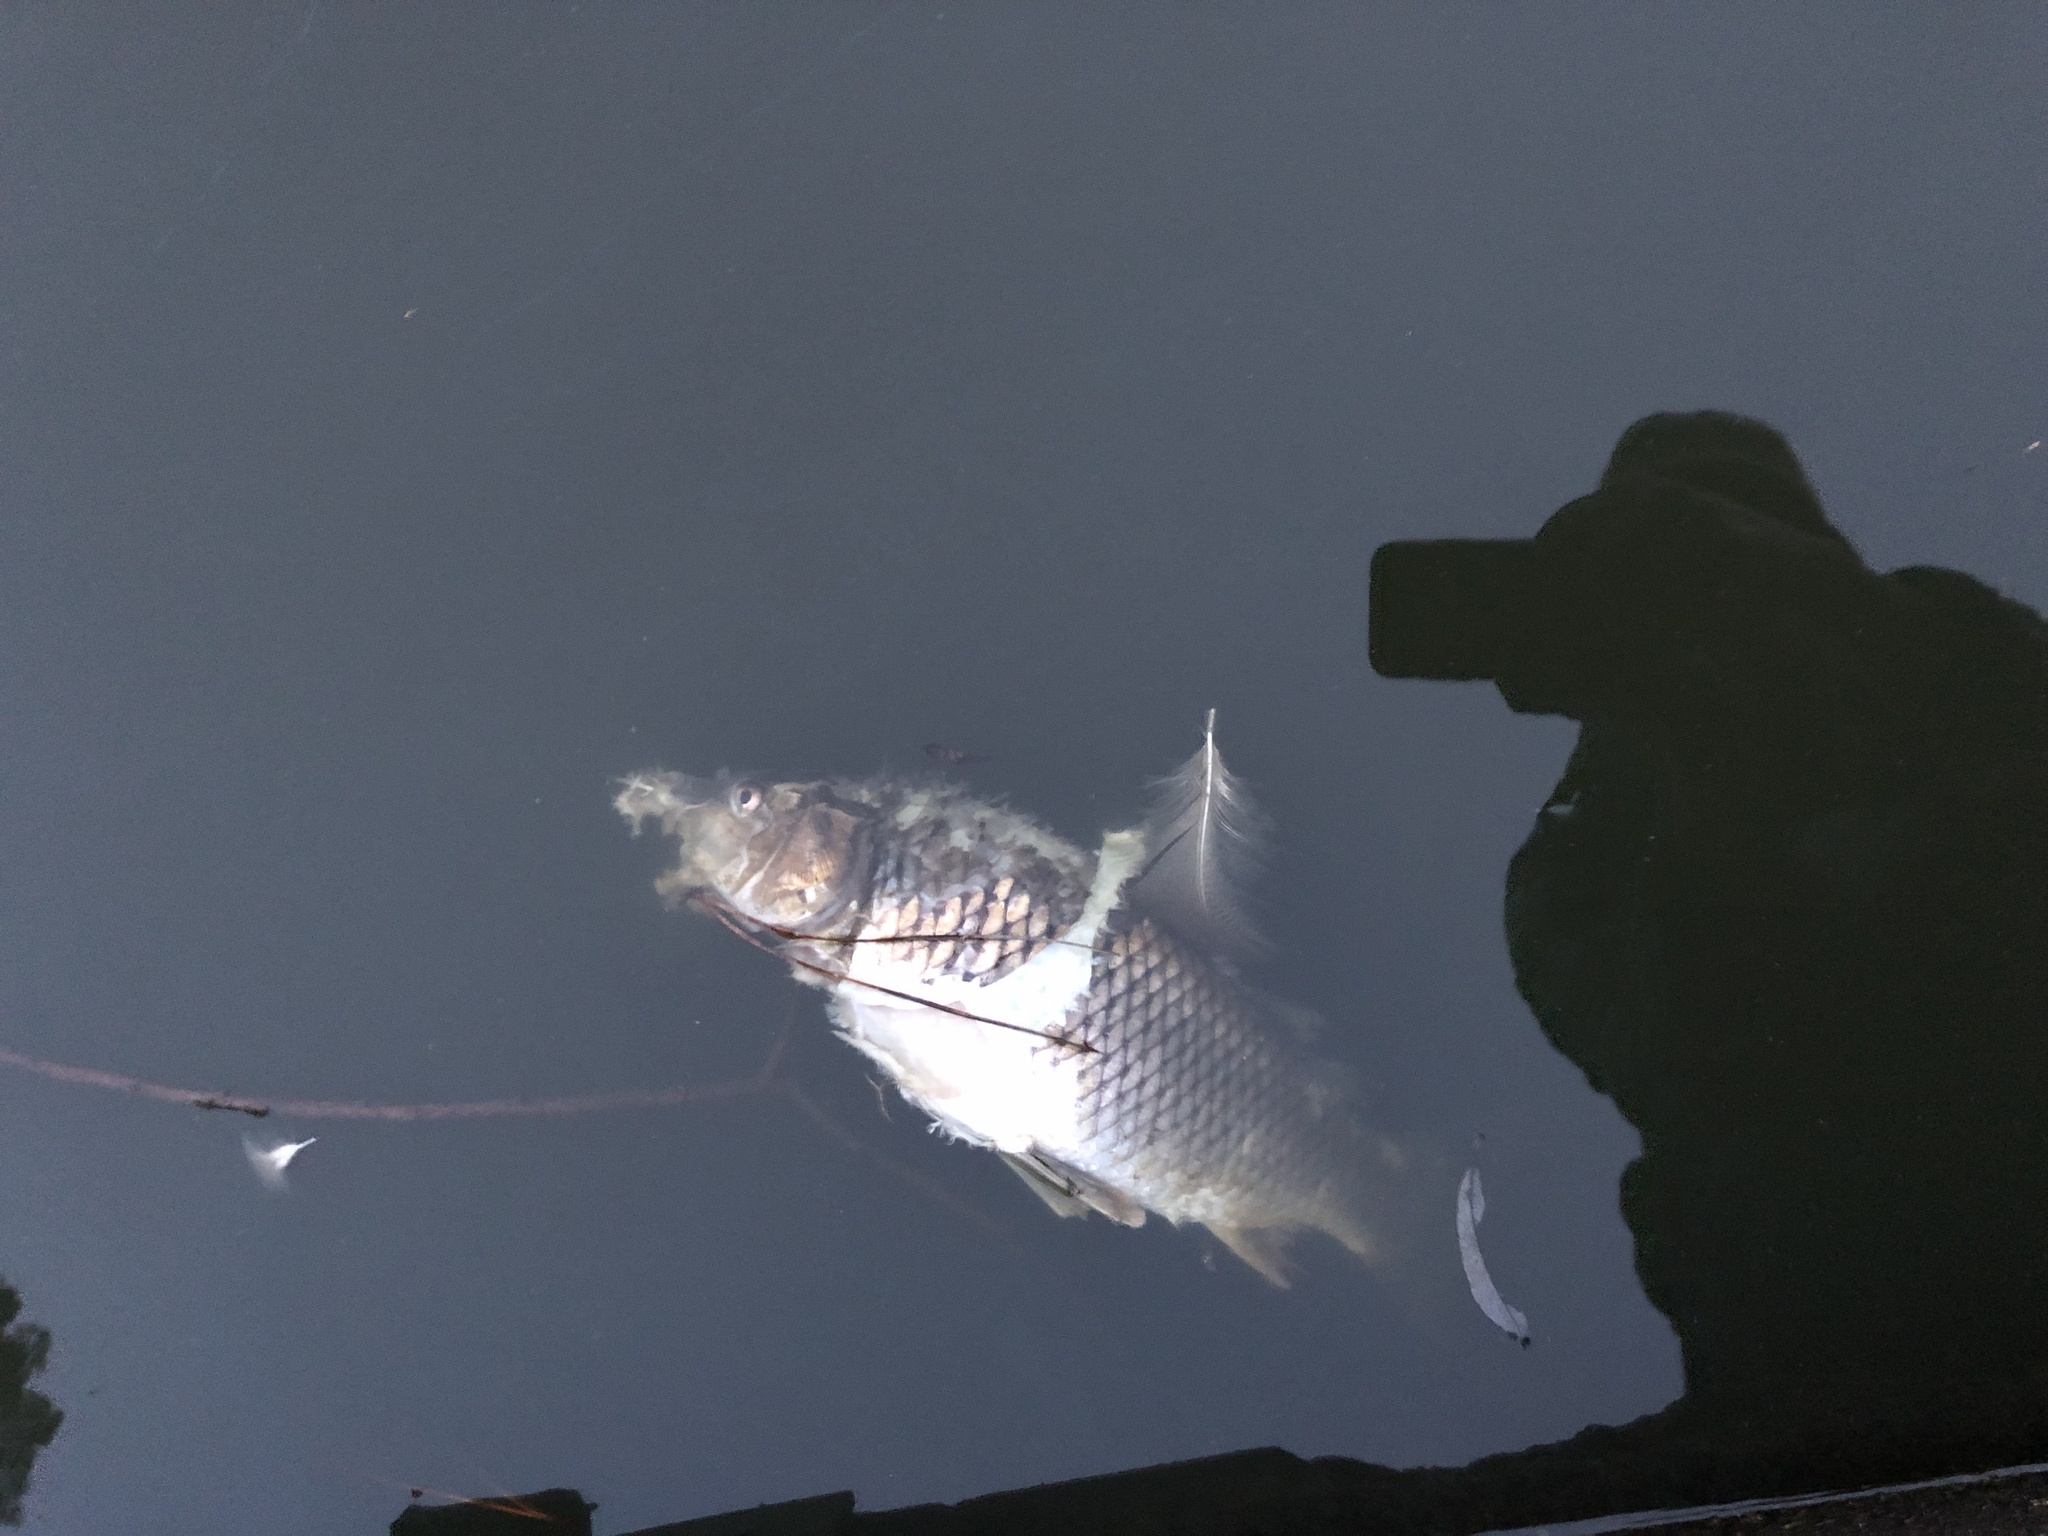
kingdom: Animalia
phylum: Chordata
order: Cypriniformes
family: Cyprinidae
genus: Cyprinus
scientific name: Cyprinus carpio
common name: Common carp
